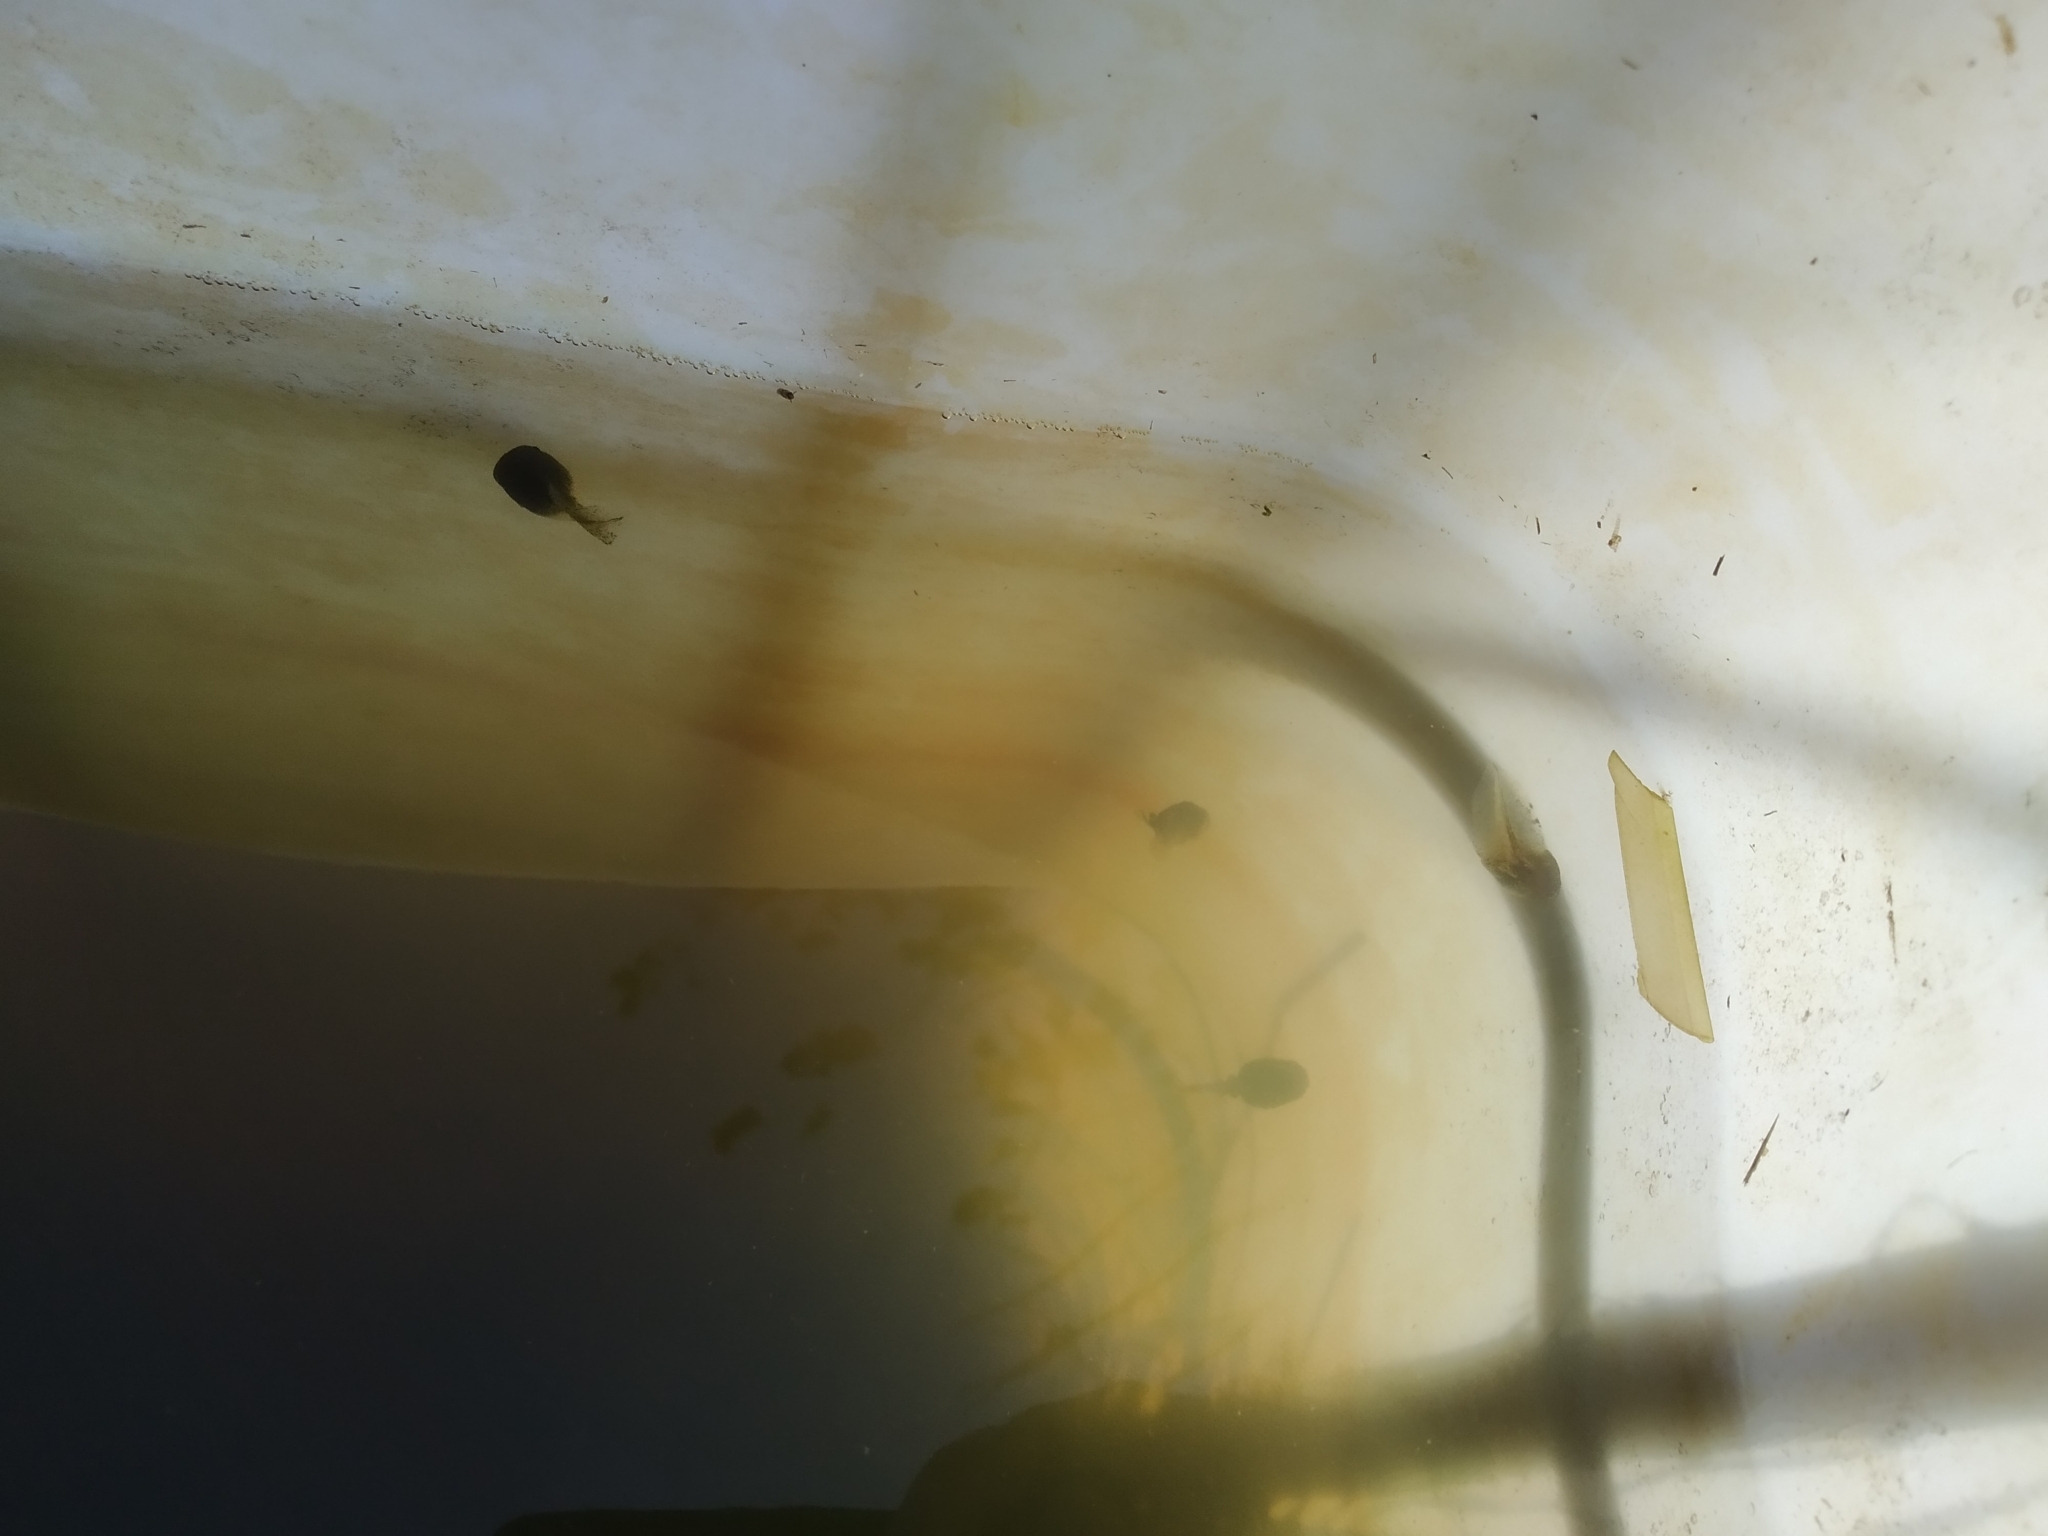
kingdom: Animalia
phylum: Chordata
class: Amphibia
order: Anura
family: Hylidae
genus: Hyla
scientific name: Hyla intermedia
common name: Italian tree frog
